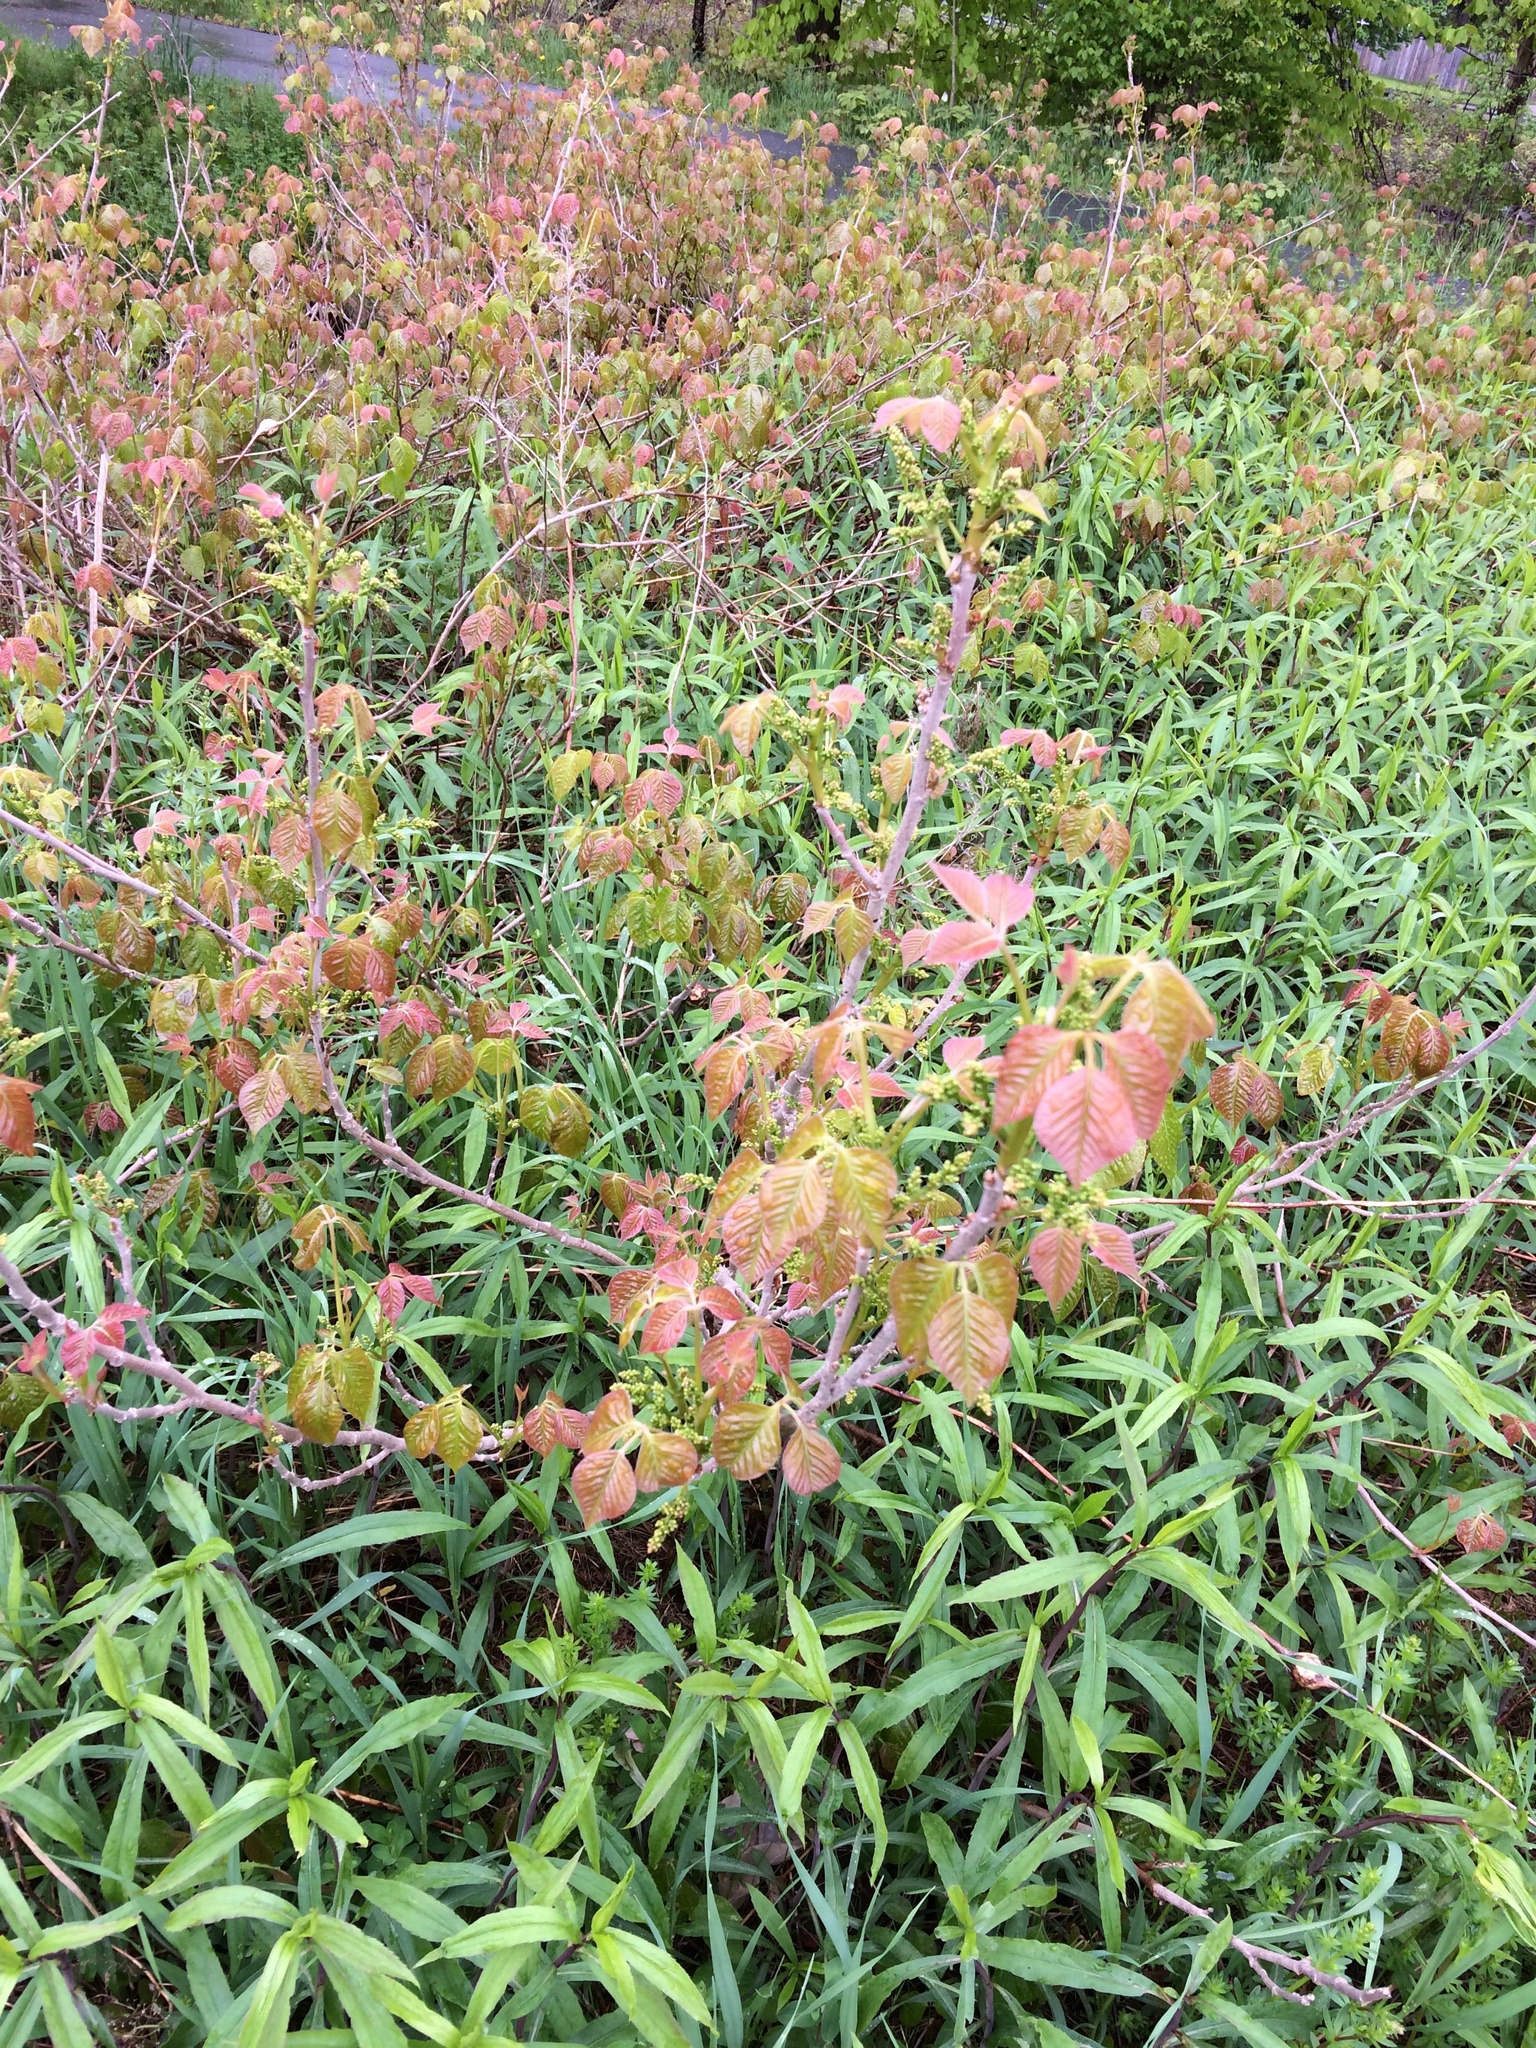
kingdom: Plantae
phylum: Tracheophyta
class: Magnoliopsida
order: Sapindales
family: Anacardiaceae
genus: Toxicodendron
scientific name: Toxicodendron rydbergii
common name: Rydberg's poison-ivy
